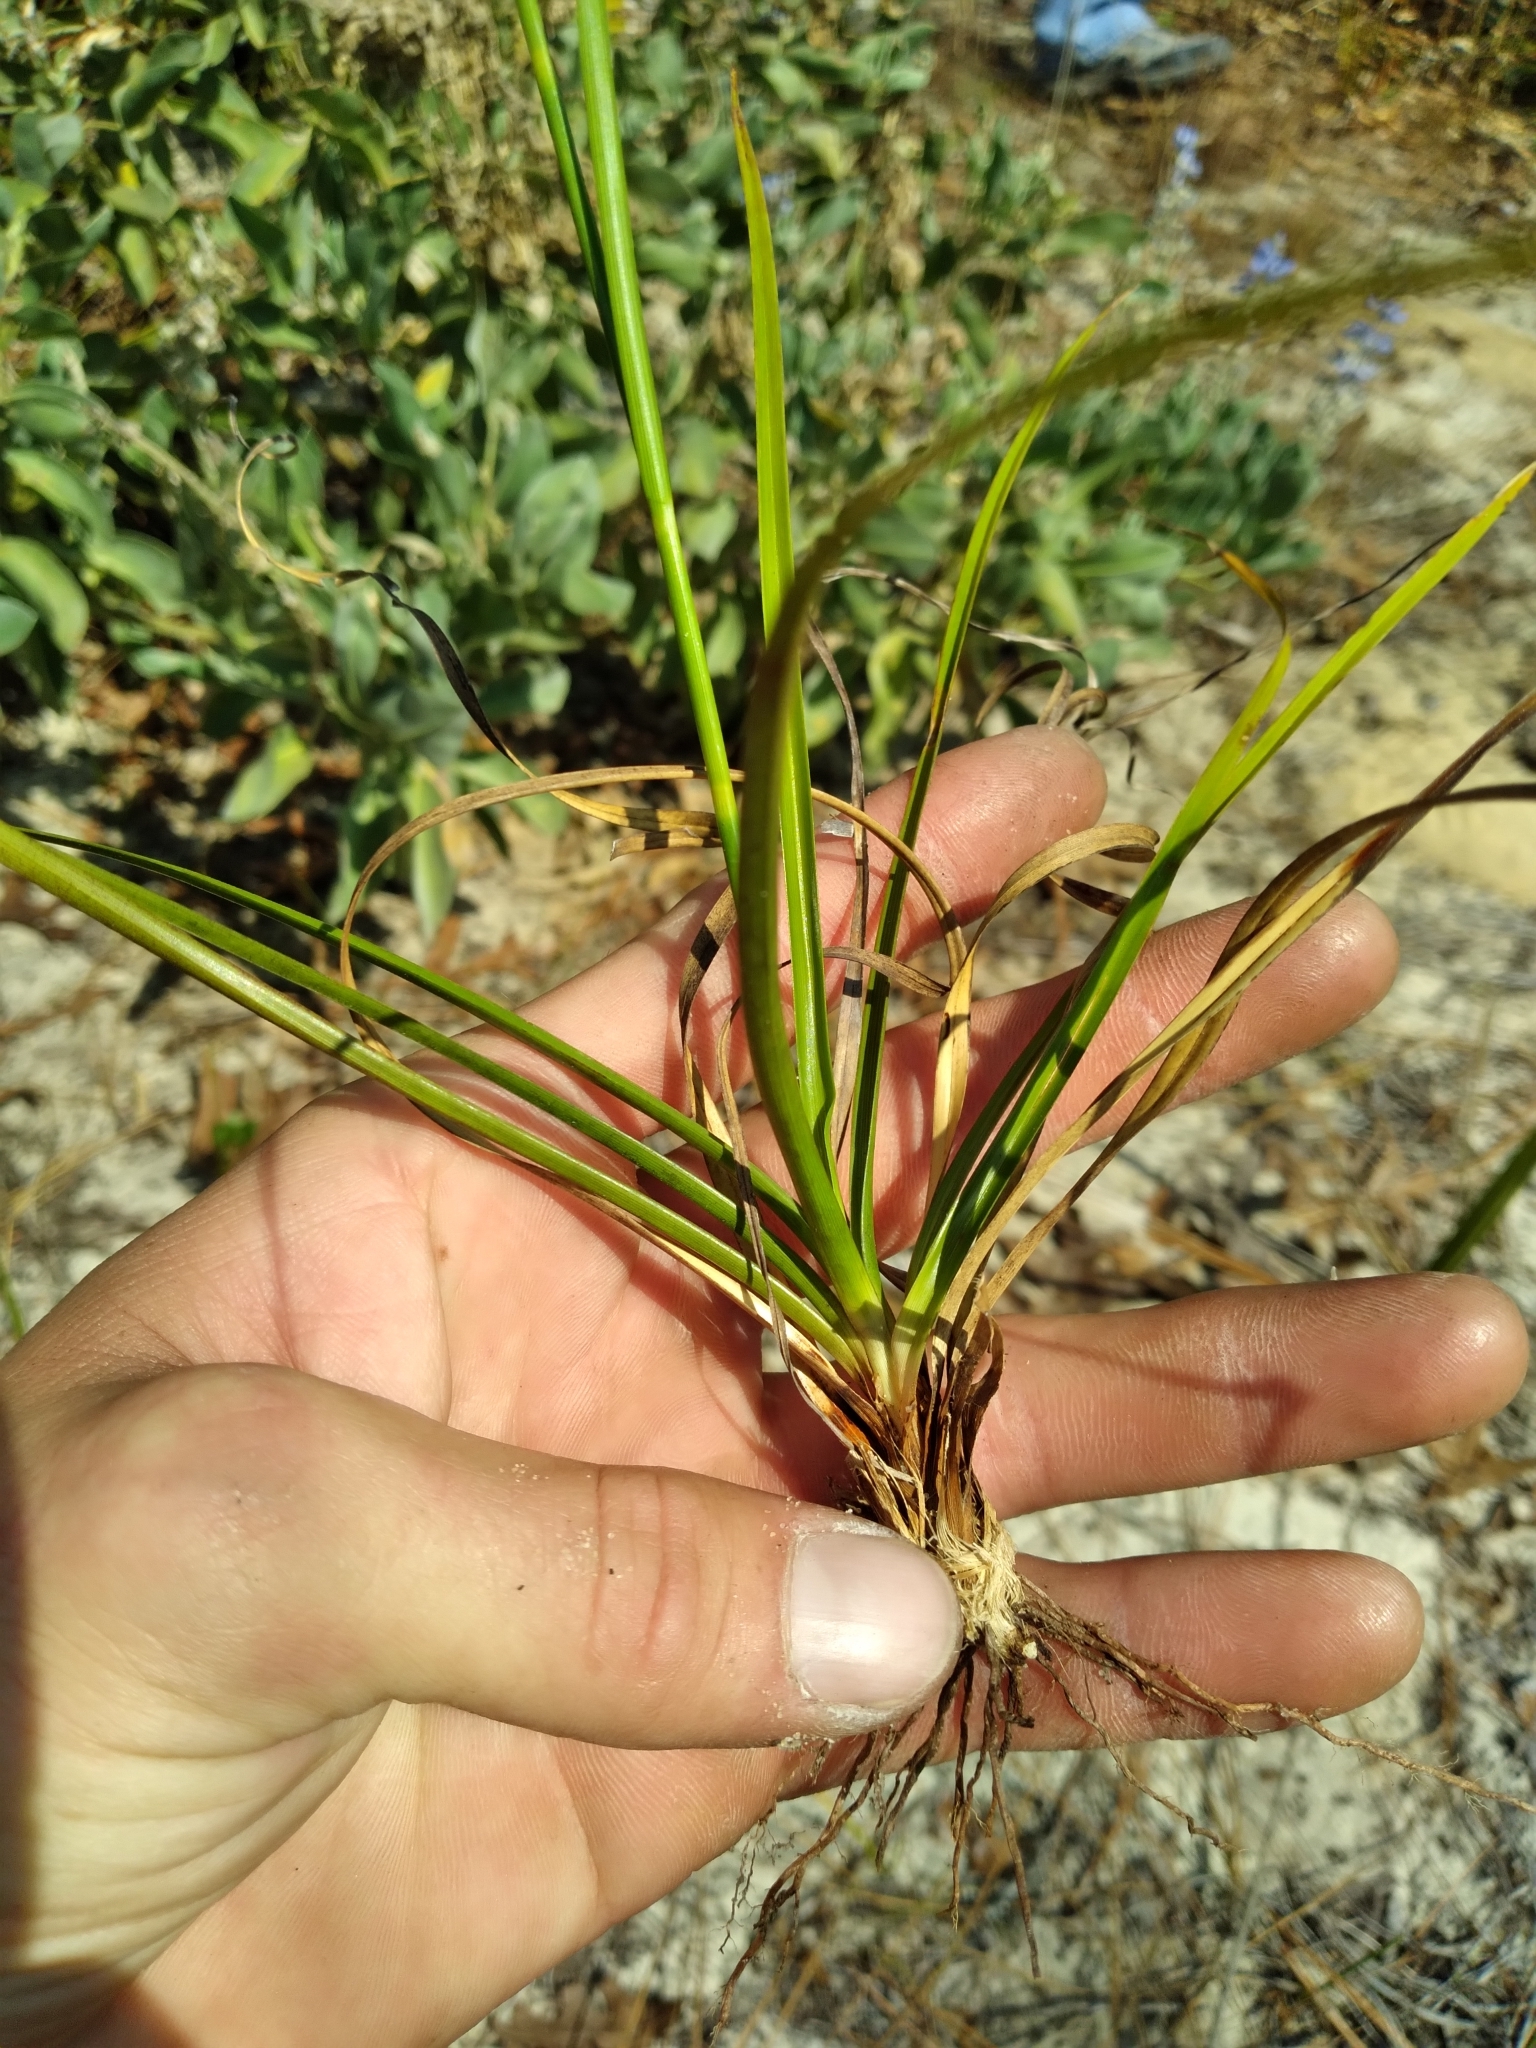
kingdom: Plantae
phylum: Tracheophyta
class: Liliopsida
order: Poales
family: Cyperaceae
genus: Rhynchospora
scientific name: Rhynchospora grayi
